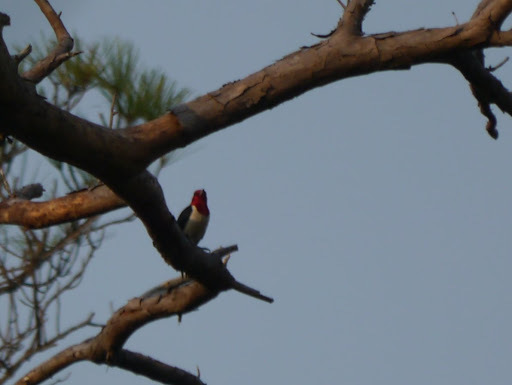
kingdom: Animalia
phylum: Chordata
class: Aves
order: Piciformes
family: Picidae
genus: Melanerpes
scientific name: Melanerpes erythrocephalus
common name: Red-headed woodpecker
